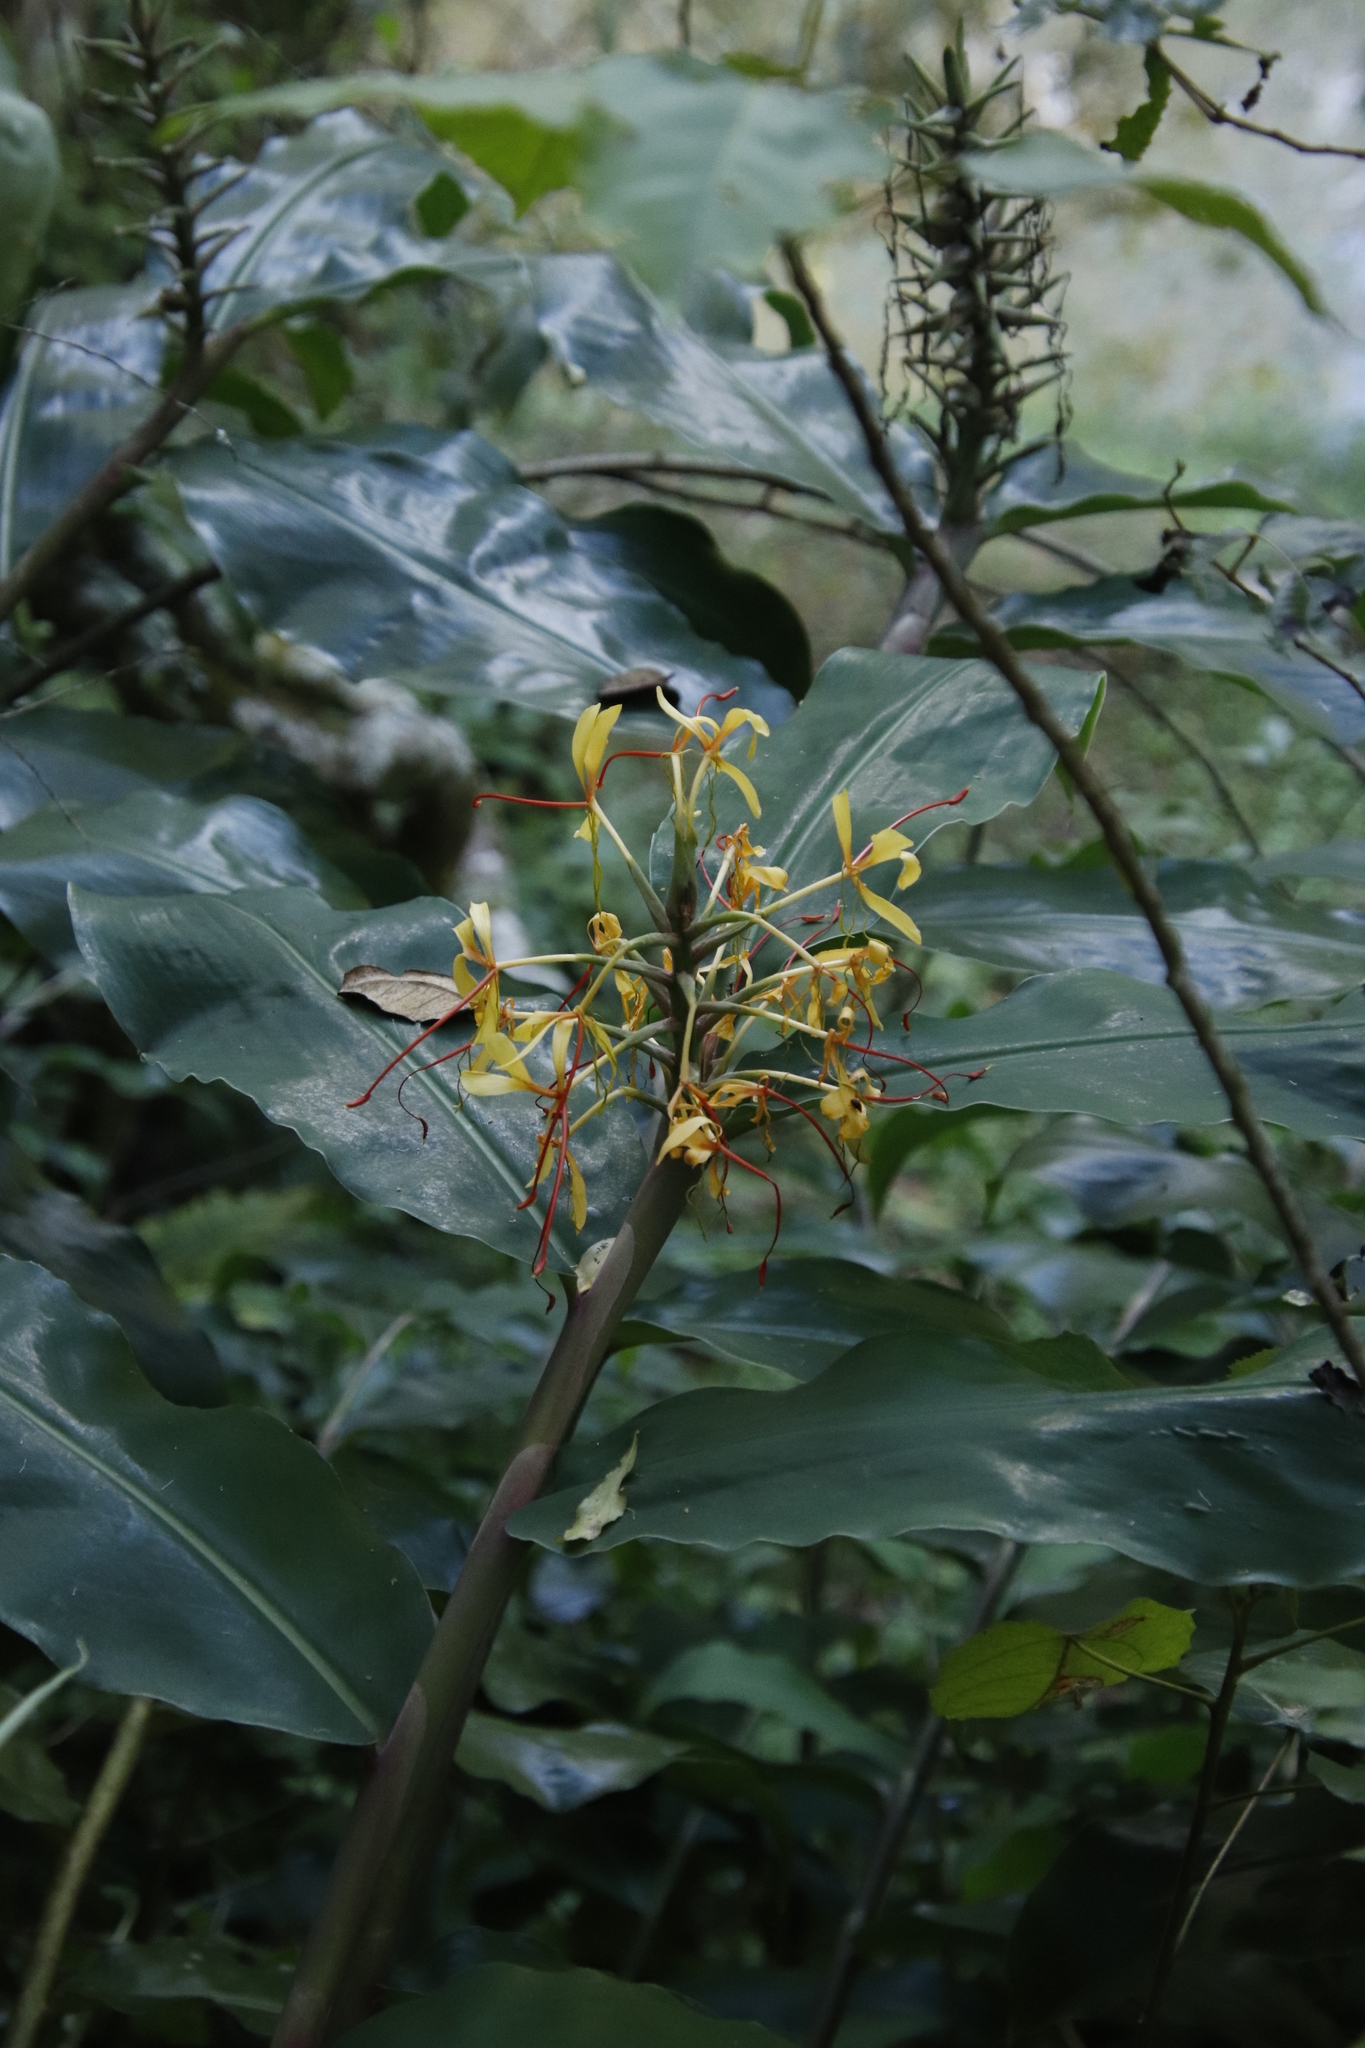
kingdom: Plantae
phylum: Tracheophyta
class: Liliopsida
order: Zingiberales
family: Zingiberaceae
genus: Hedychium
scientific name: Hedychium gardnerianum
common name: Himalayan ginger
